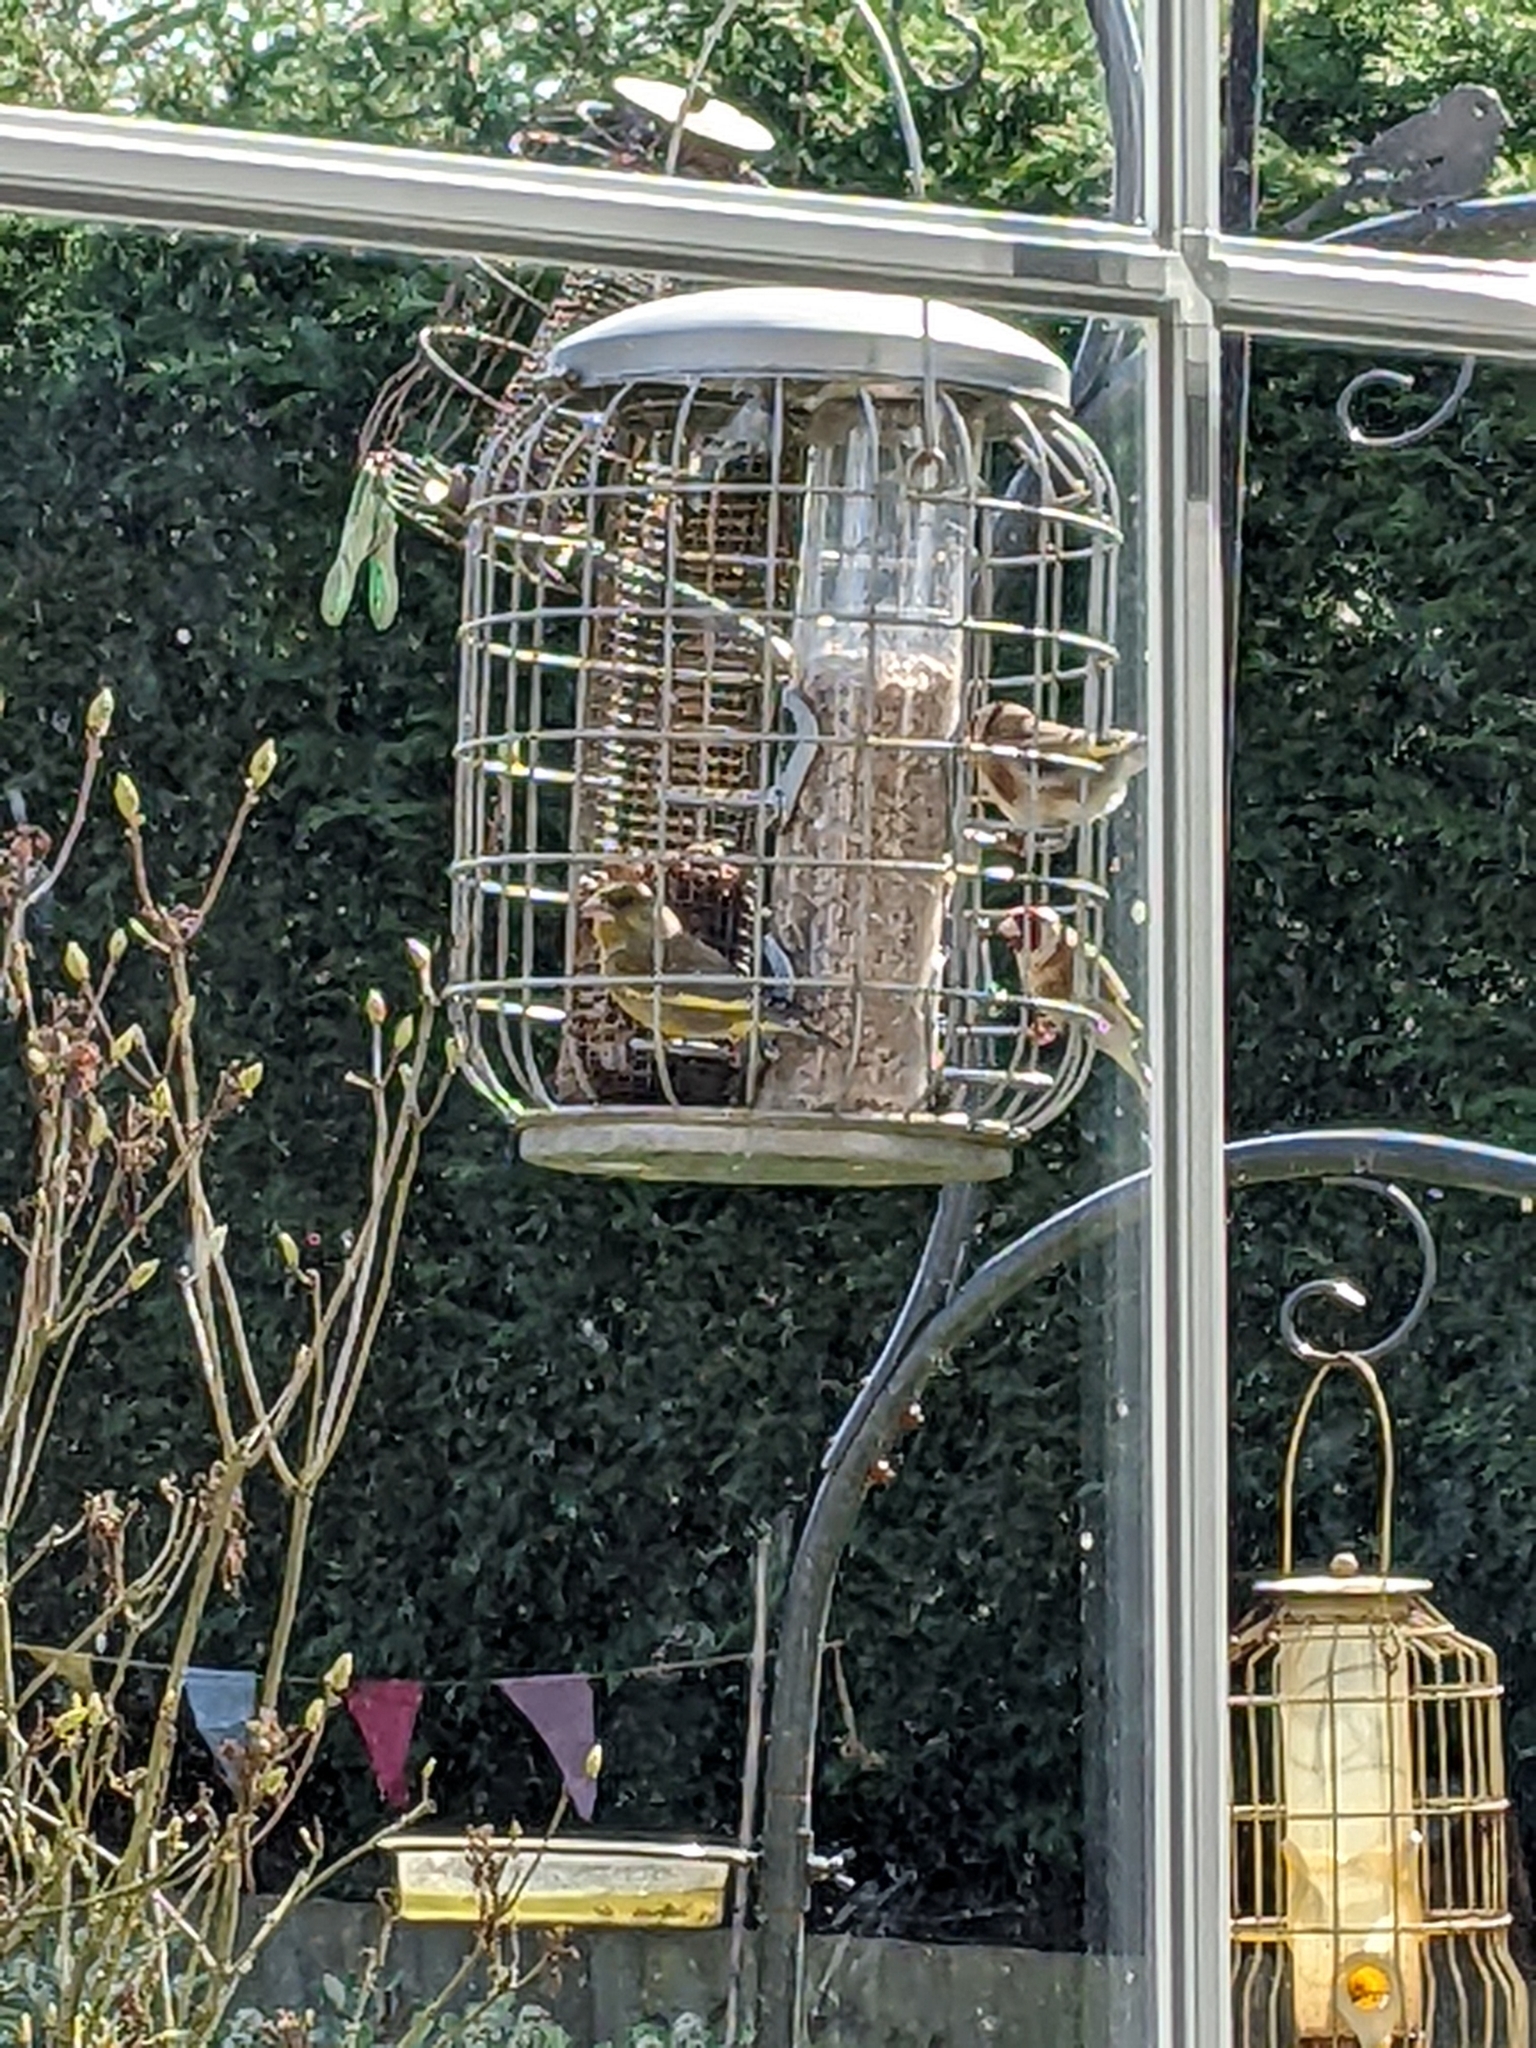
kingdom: Animalia
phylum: Chordata
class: Aves
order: Passeriformes
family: Fringillidae
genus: Carduelis
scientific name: Carduelis carduelis
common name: European goldfinch
